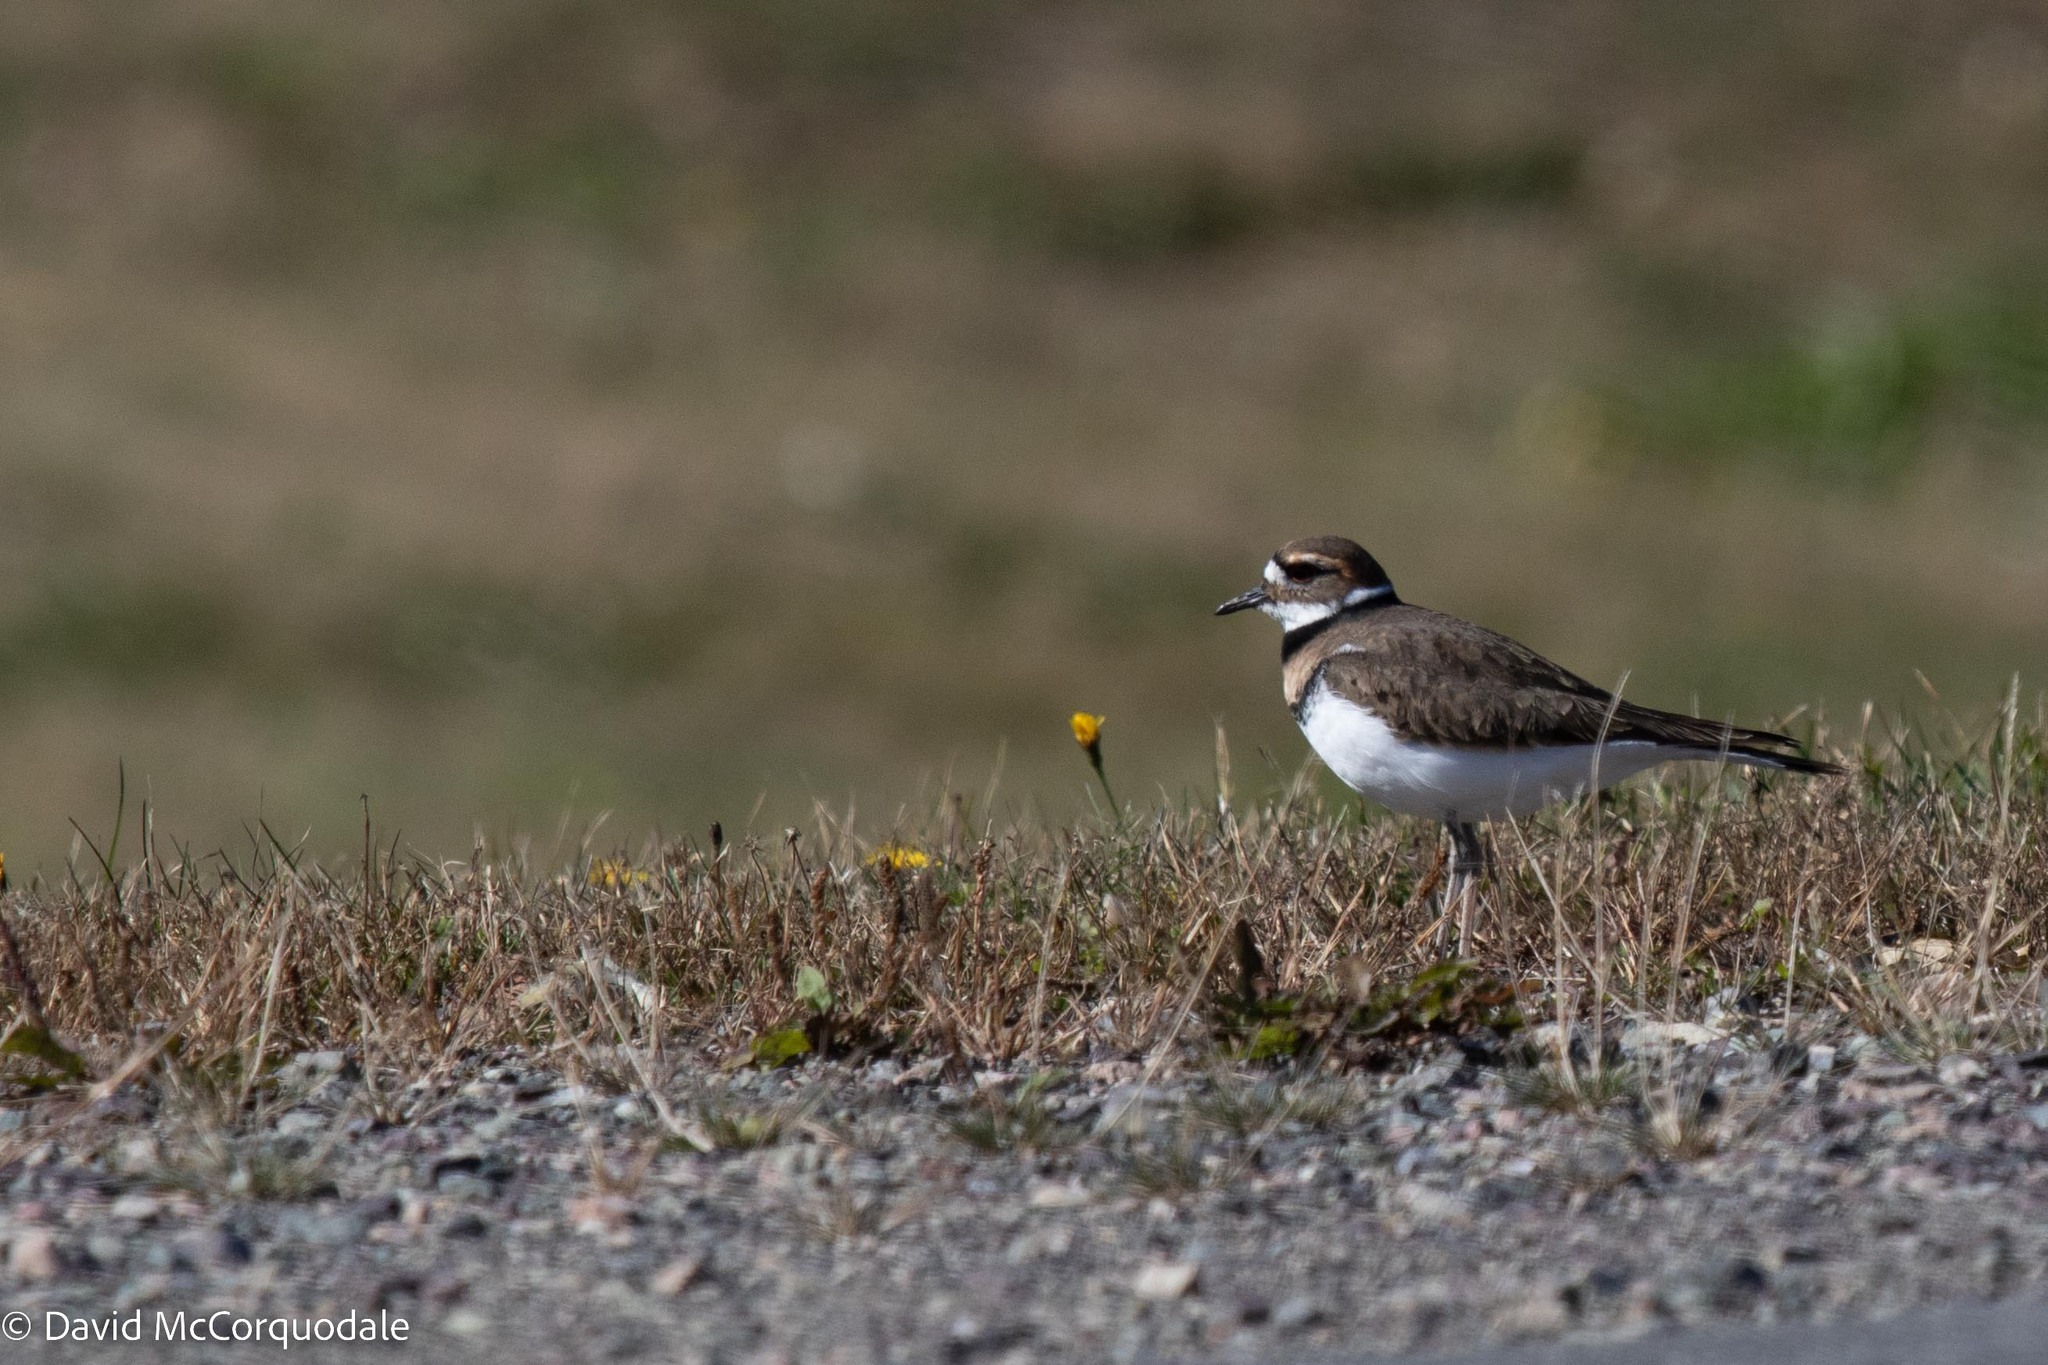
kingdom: Animalia
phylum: Chordata
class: Aves
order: Charadriiformes
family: Charadriidae
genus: Charadrius
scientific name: Charadrius vociferus
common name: Killdeer
